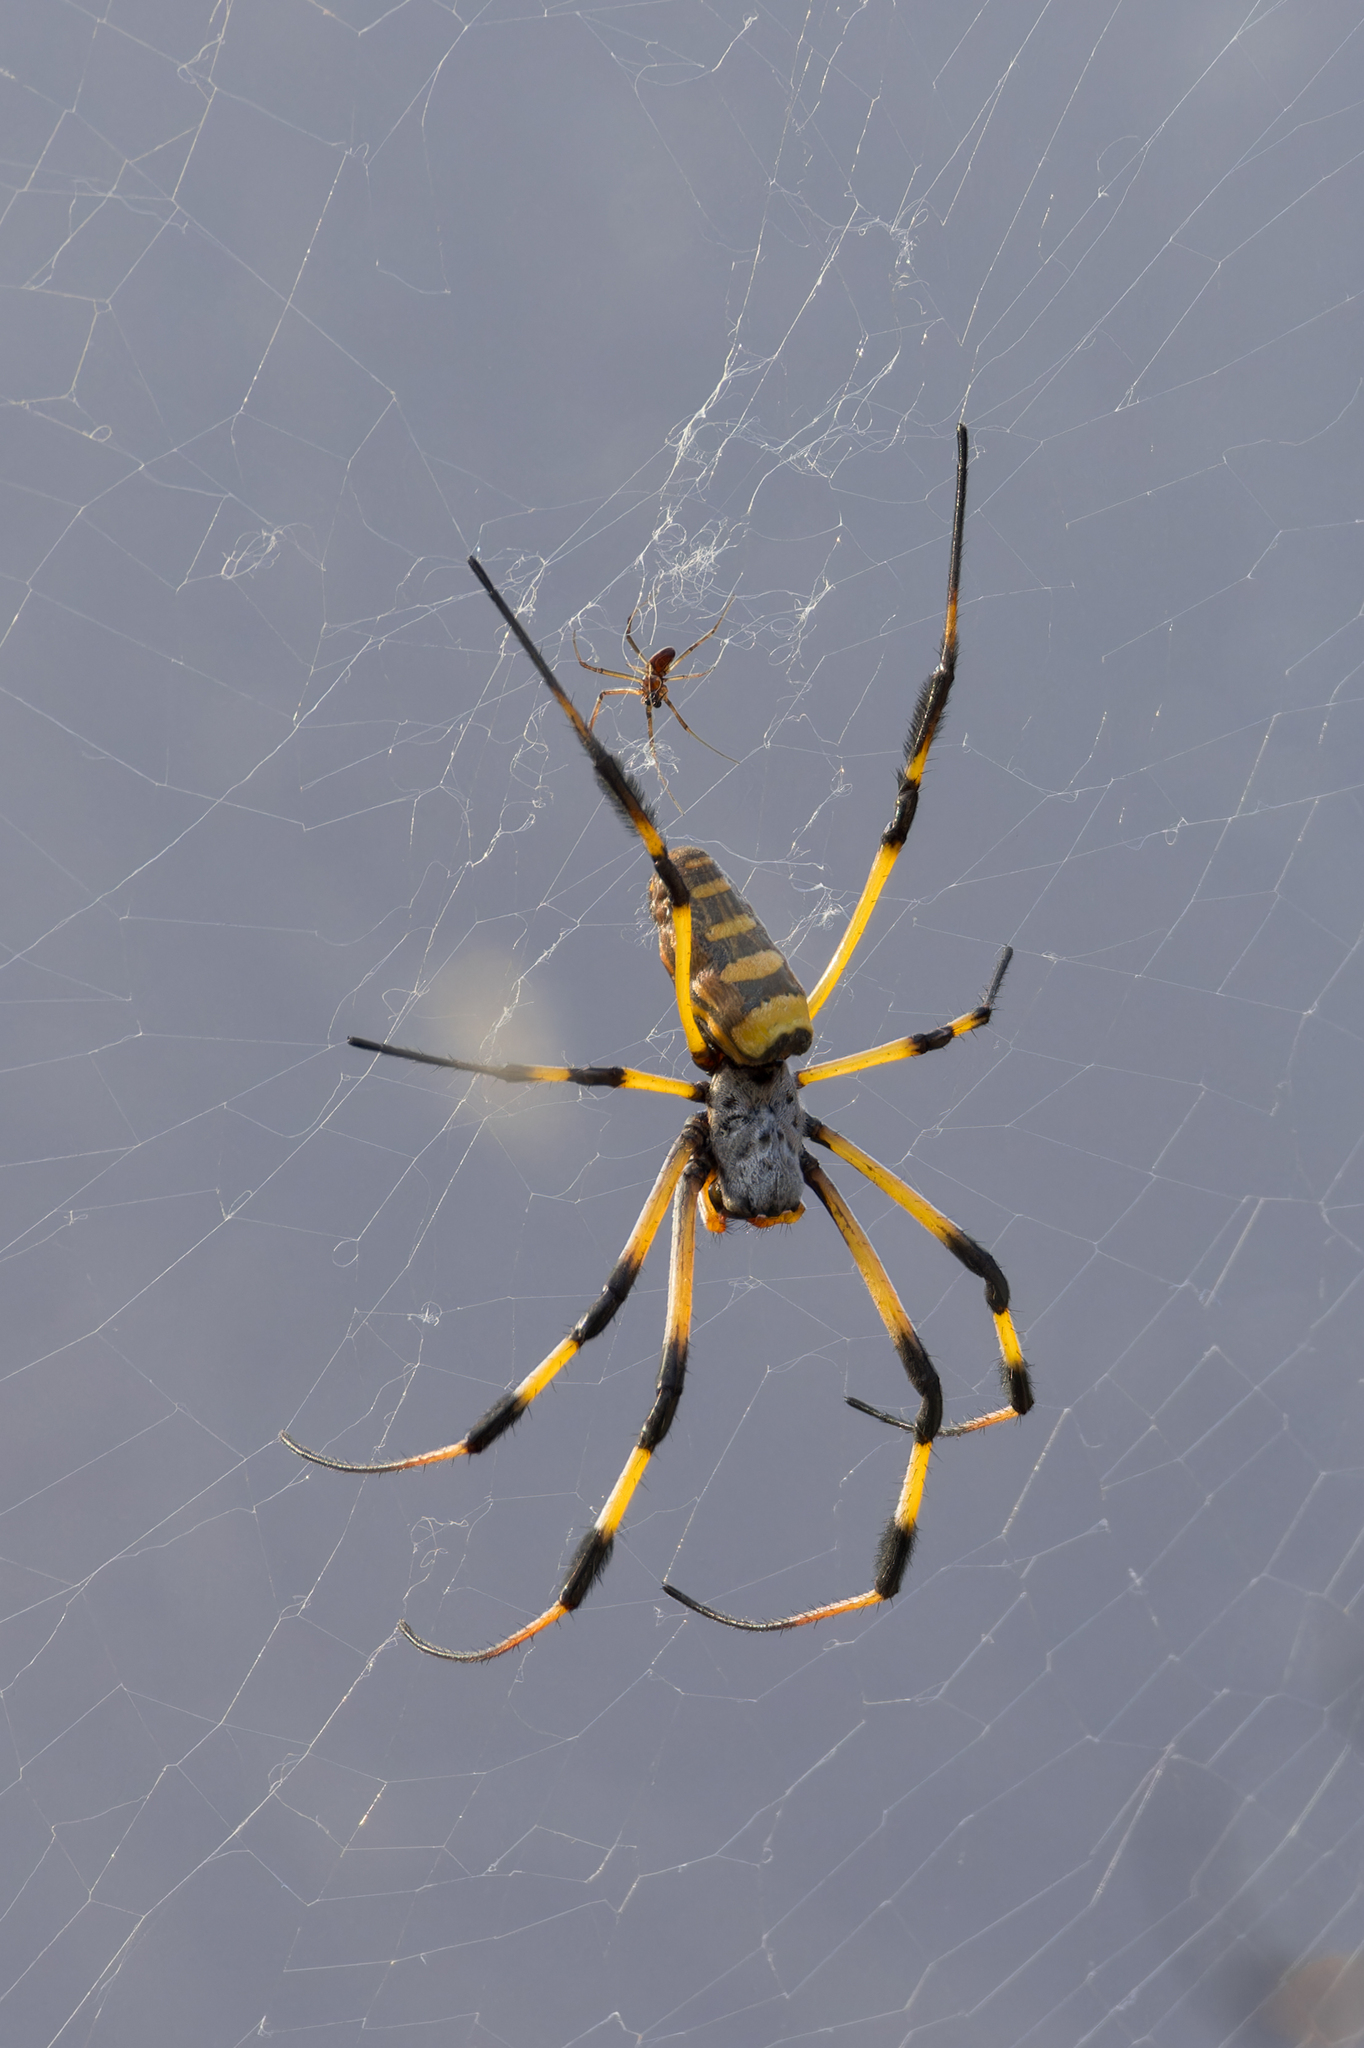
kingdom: Animalia
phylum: Arthropoda
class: Arachnida
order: Araneae
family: Araneidae
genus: Trichonephila
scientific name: Trichonephila senegalensis
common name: Banded golden orb weaver
